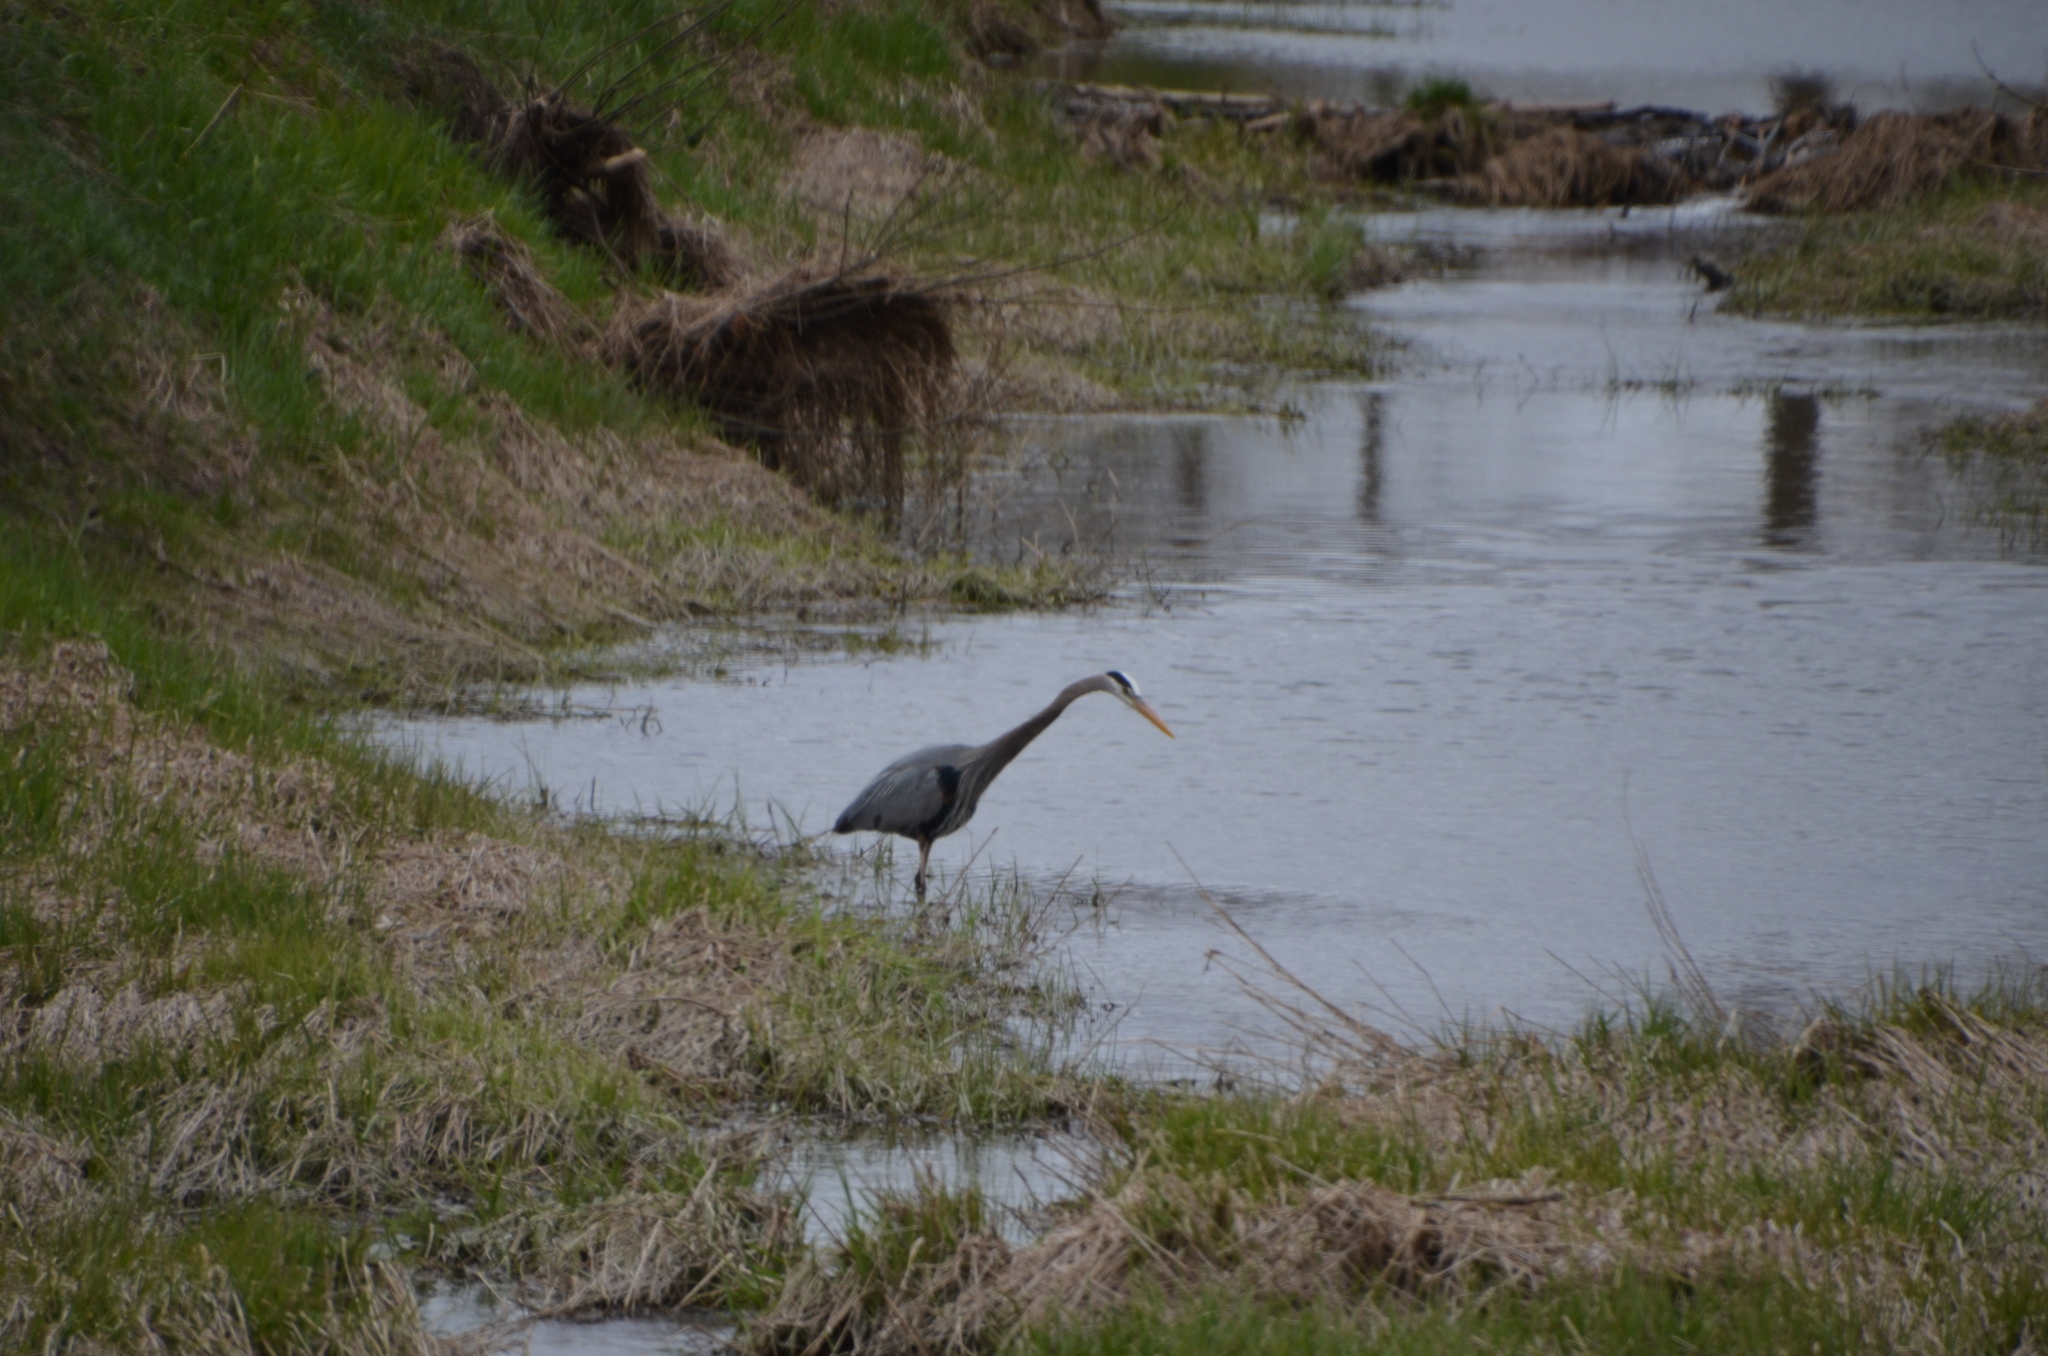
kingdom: Animalia
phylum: Chordata
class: Aves
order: Pelecaniformes
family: Ardeidae
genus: Ardea
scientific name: Ardea herodias
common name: Great blue heron
